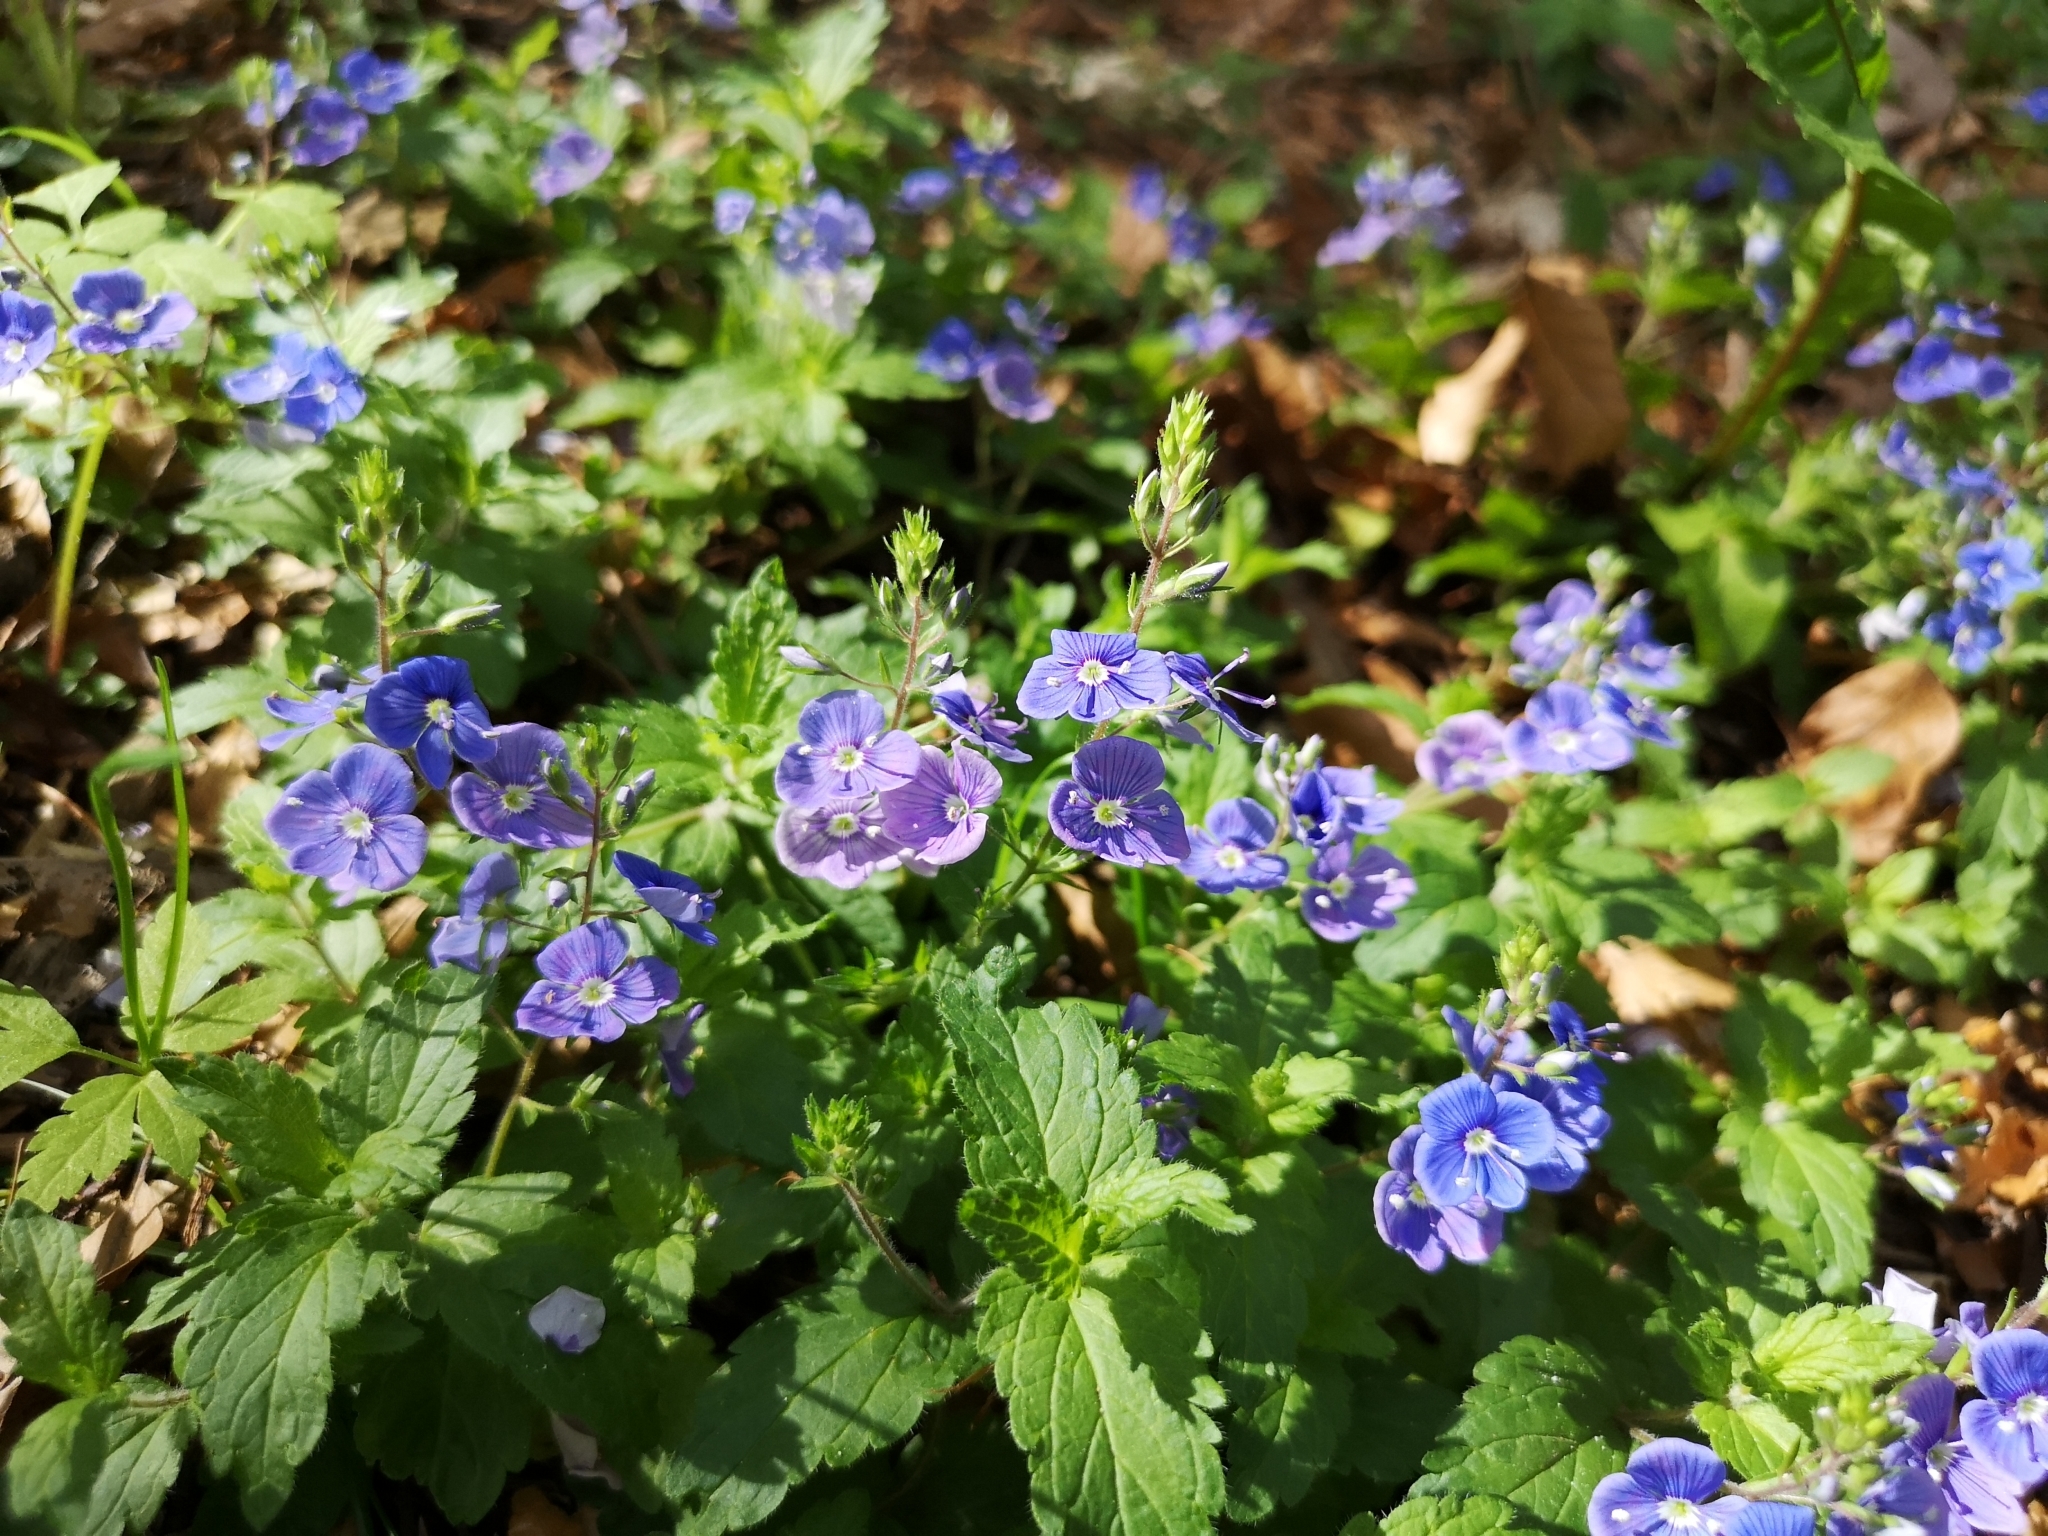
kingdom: Plantae
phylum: Tracheophyta
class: Magnoliopsida
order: Lamiales
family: Plantaginaceae
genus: Veronica
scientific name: Veronica chamaedrys
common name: Germander speedwell
